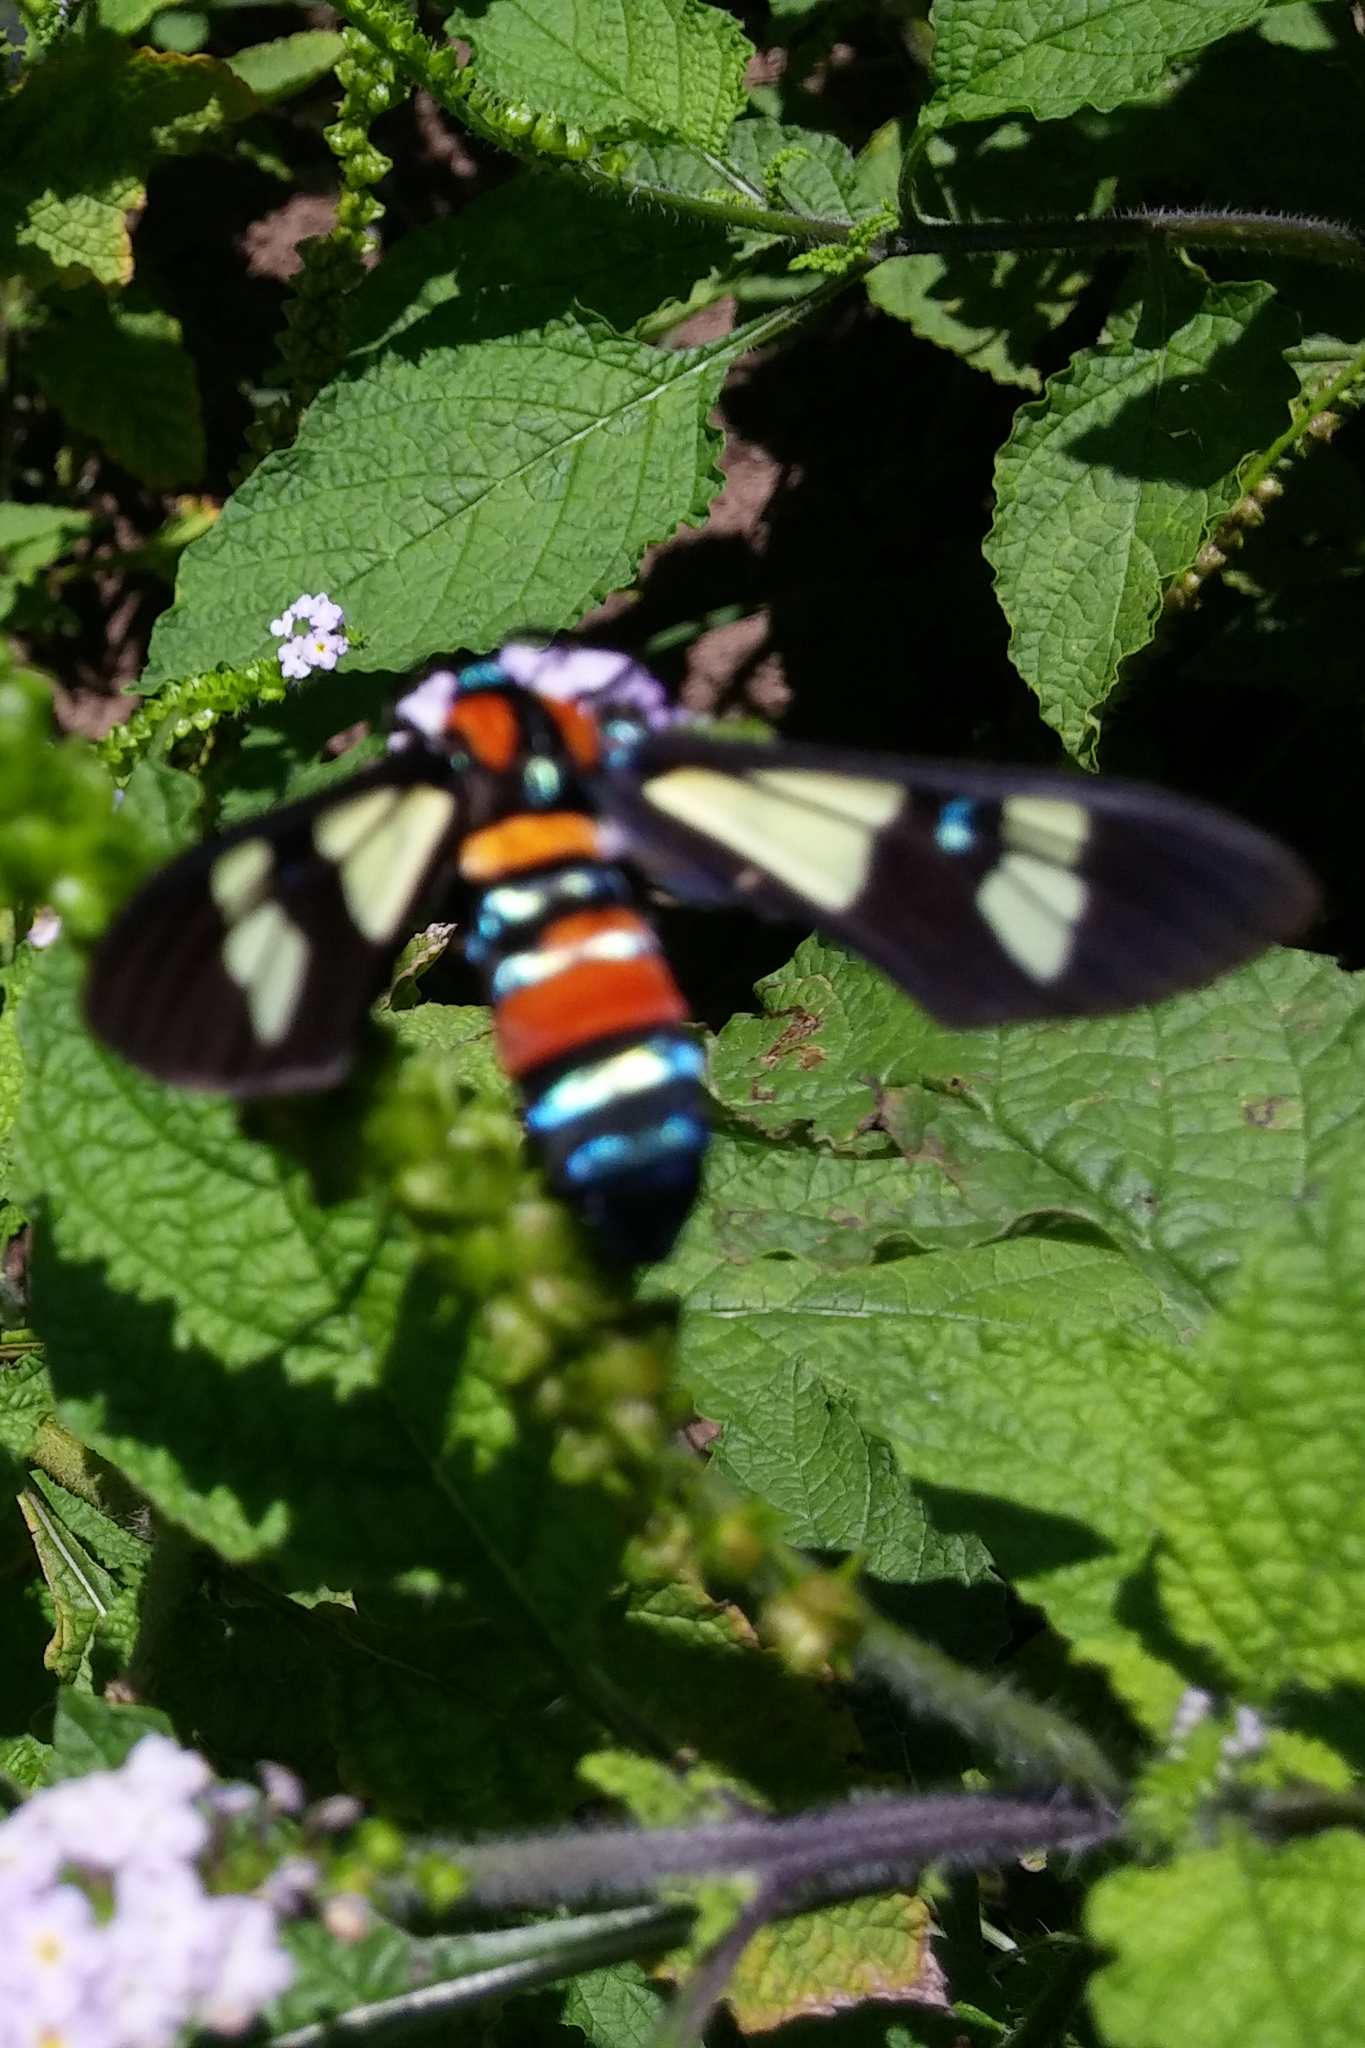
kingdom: Animalia
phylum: Arthropoda
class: Insecta
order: Lepidoptera
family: Erebidae
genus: Euchromia
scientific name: Euchromia folletii
